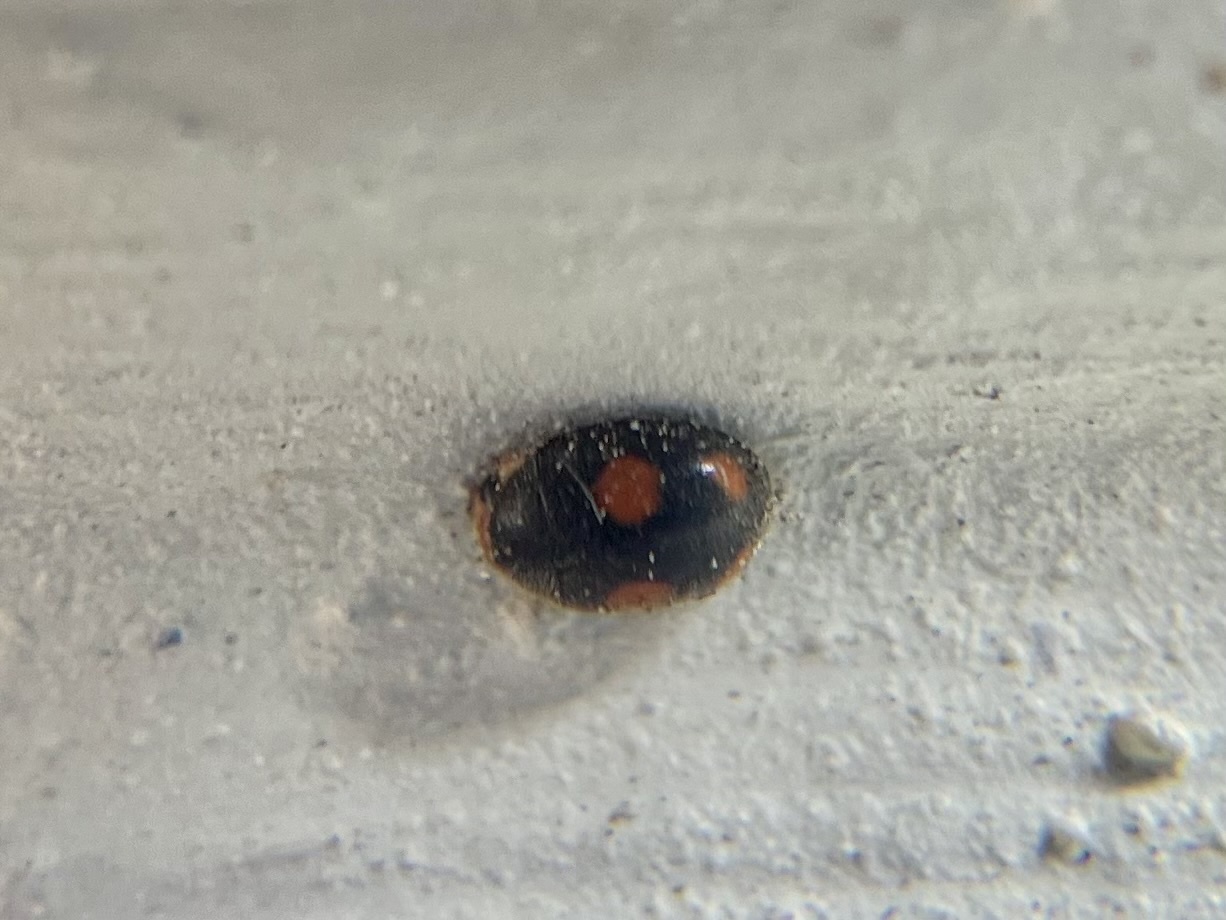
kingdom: Animalia
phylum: Arthropoda
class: Insecta
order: Coleoptera
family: Coccinellidae
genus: Platynaspis
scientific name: Platynaspis luteorubra
